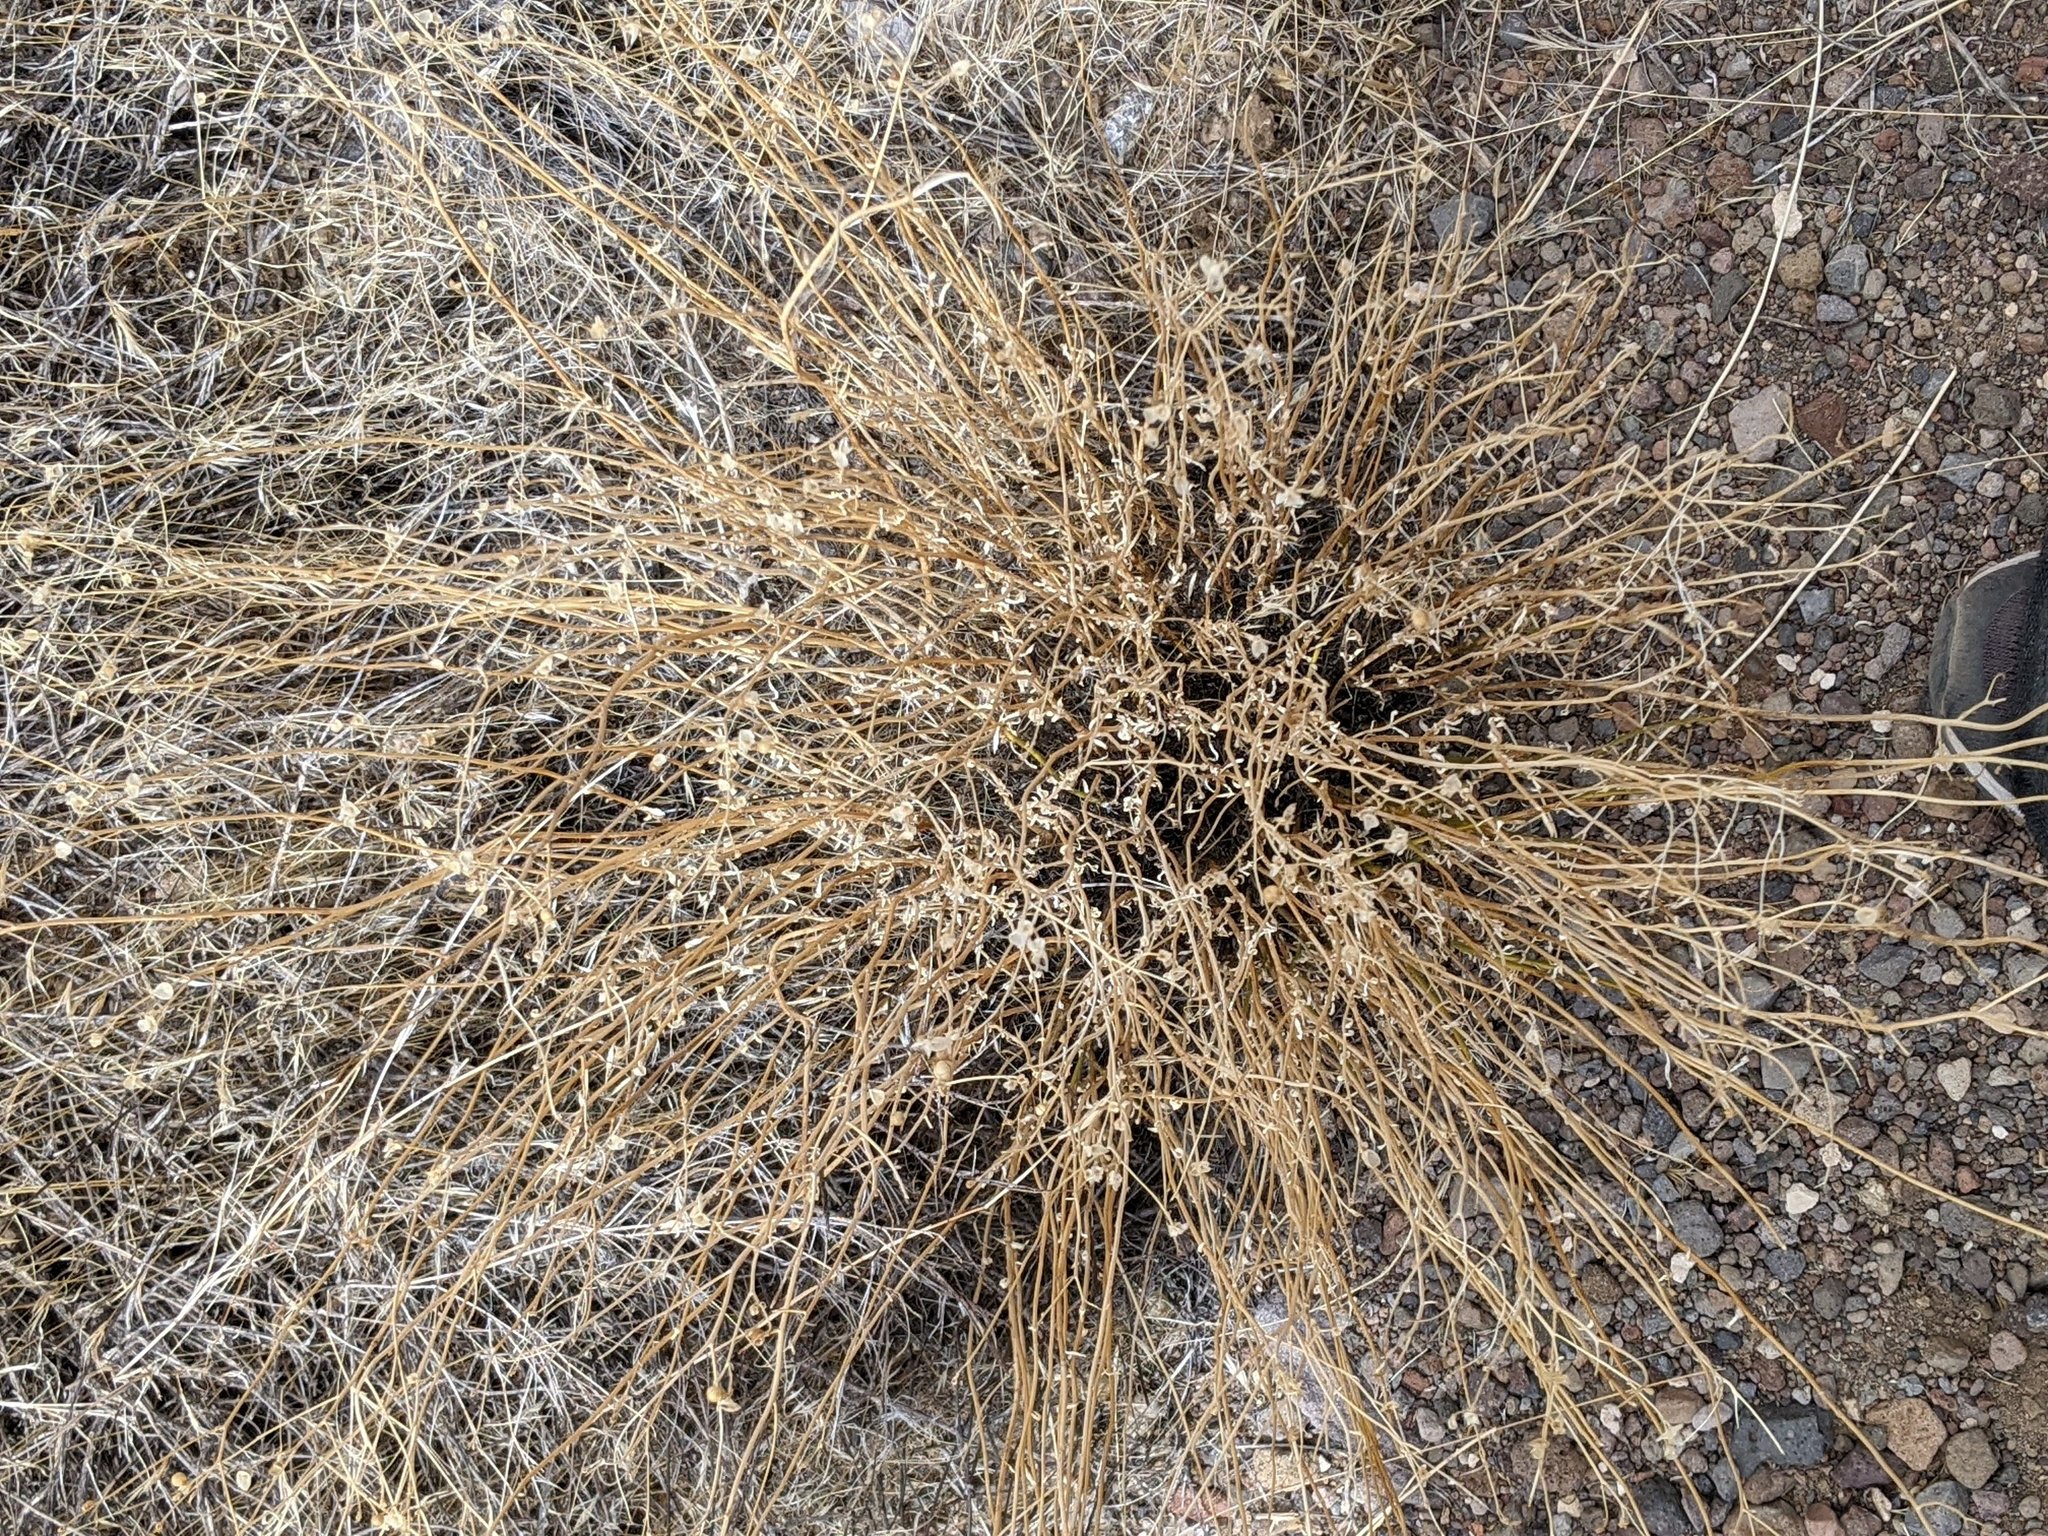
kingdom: Plantae
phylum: Tracheophyta
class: Magnoliopsida
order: Lamiales
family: Oleaceae
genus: Menodora
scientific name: Menodora scabra
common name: Rough menodora
